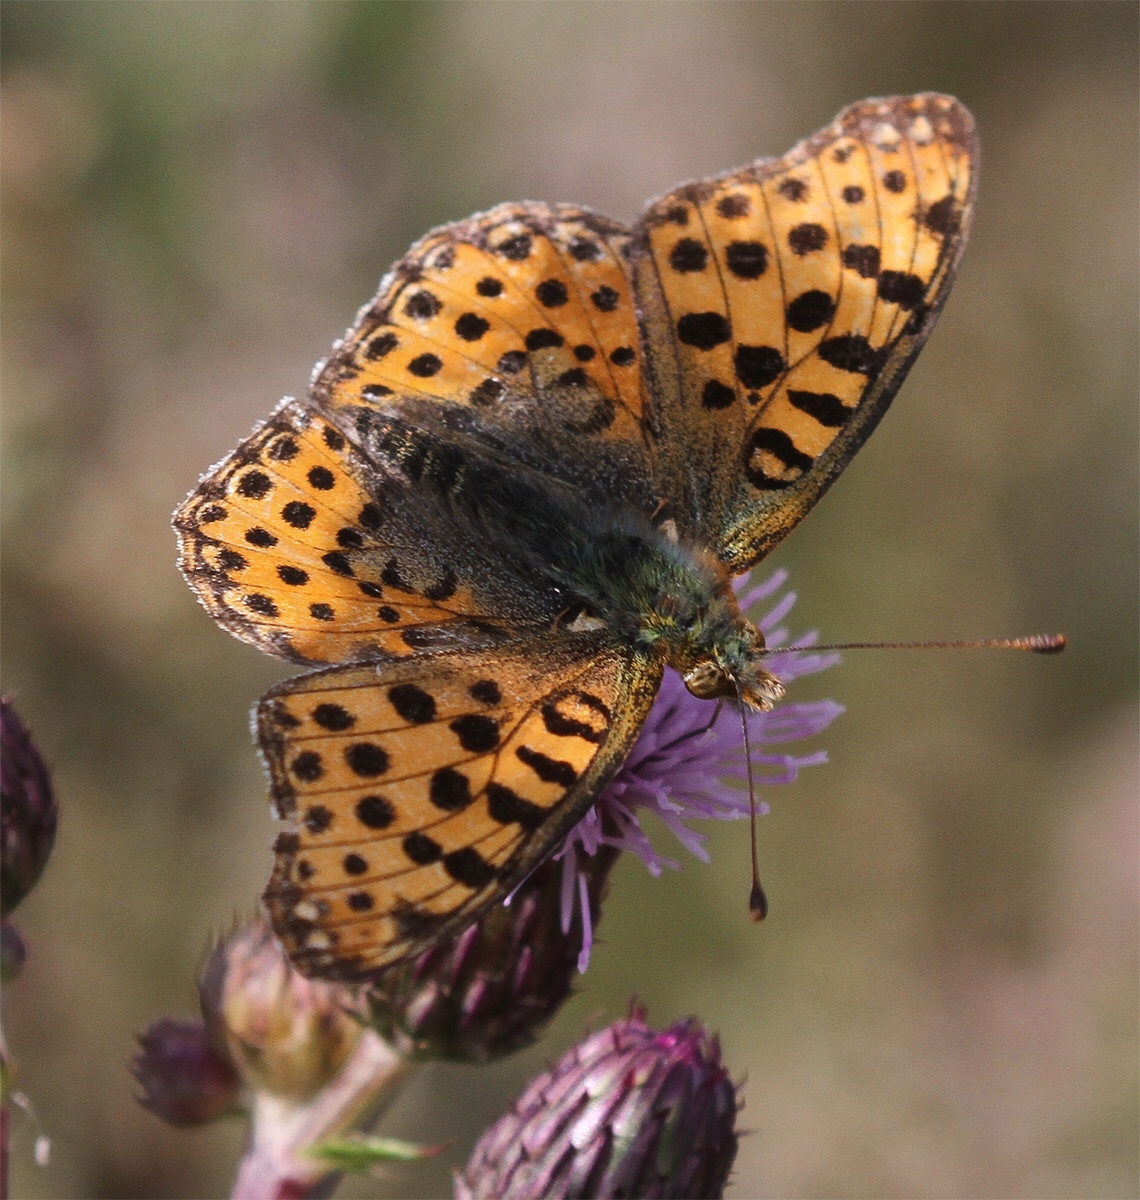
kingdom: Animalia
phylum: Arthropoda
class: Insecta
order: Lepidoptera
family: Nymphalidae
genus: Issoria
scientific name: Issoria lathonia
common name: Queen of spain fritillary
